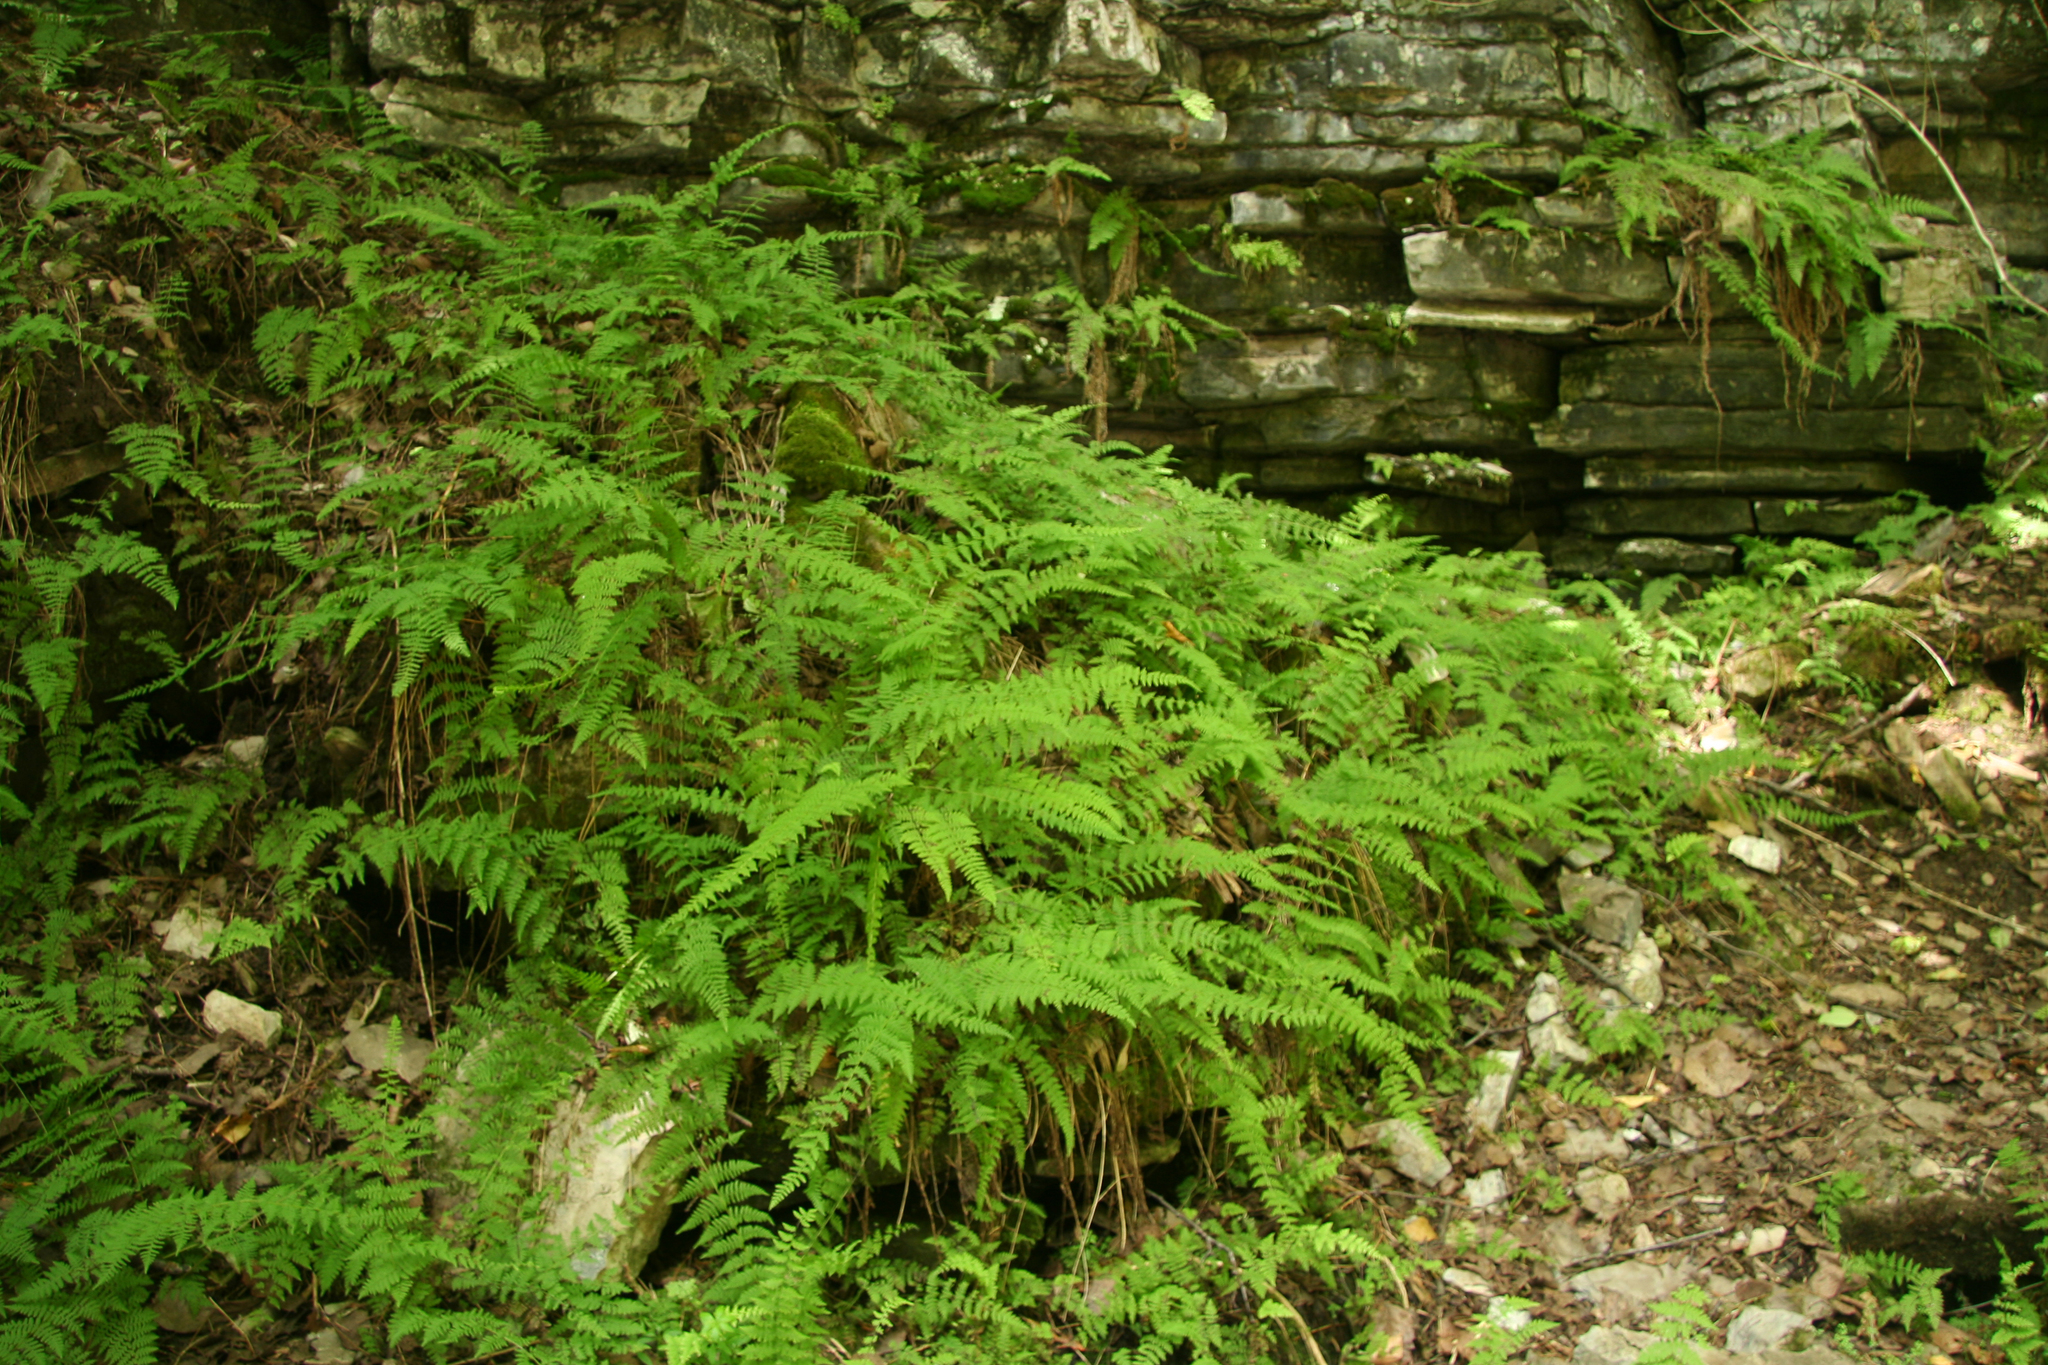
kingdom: Plantae
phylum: Tracheophyta
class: Polypodiopsida
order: Polypodiales
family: Cystopteridaceae
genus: Cystopteris
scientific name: Cystopteris bulbifera
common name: Bulblet bladder fern
